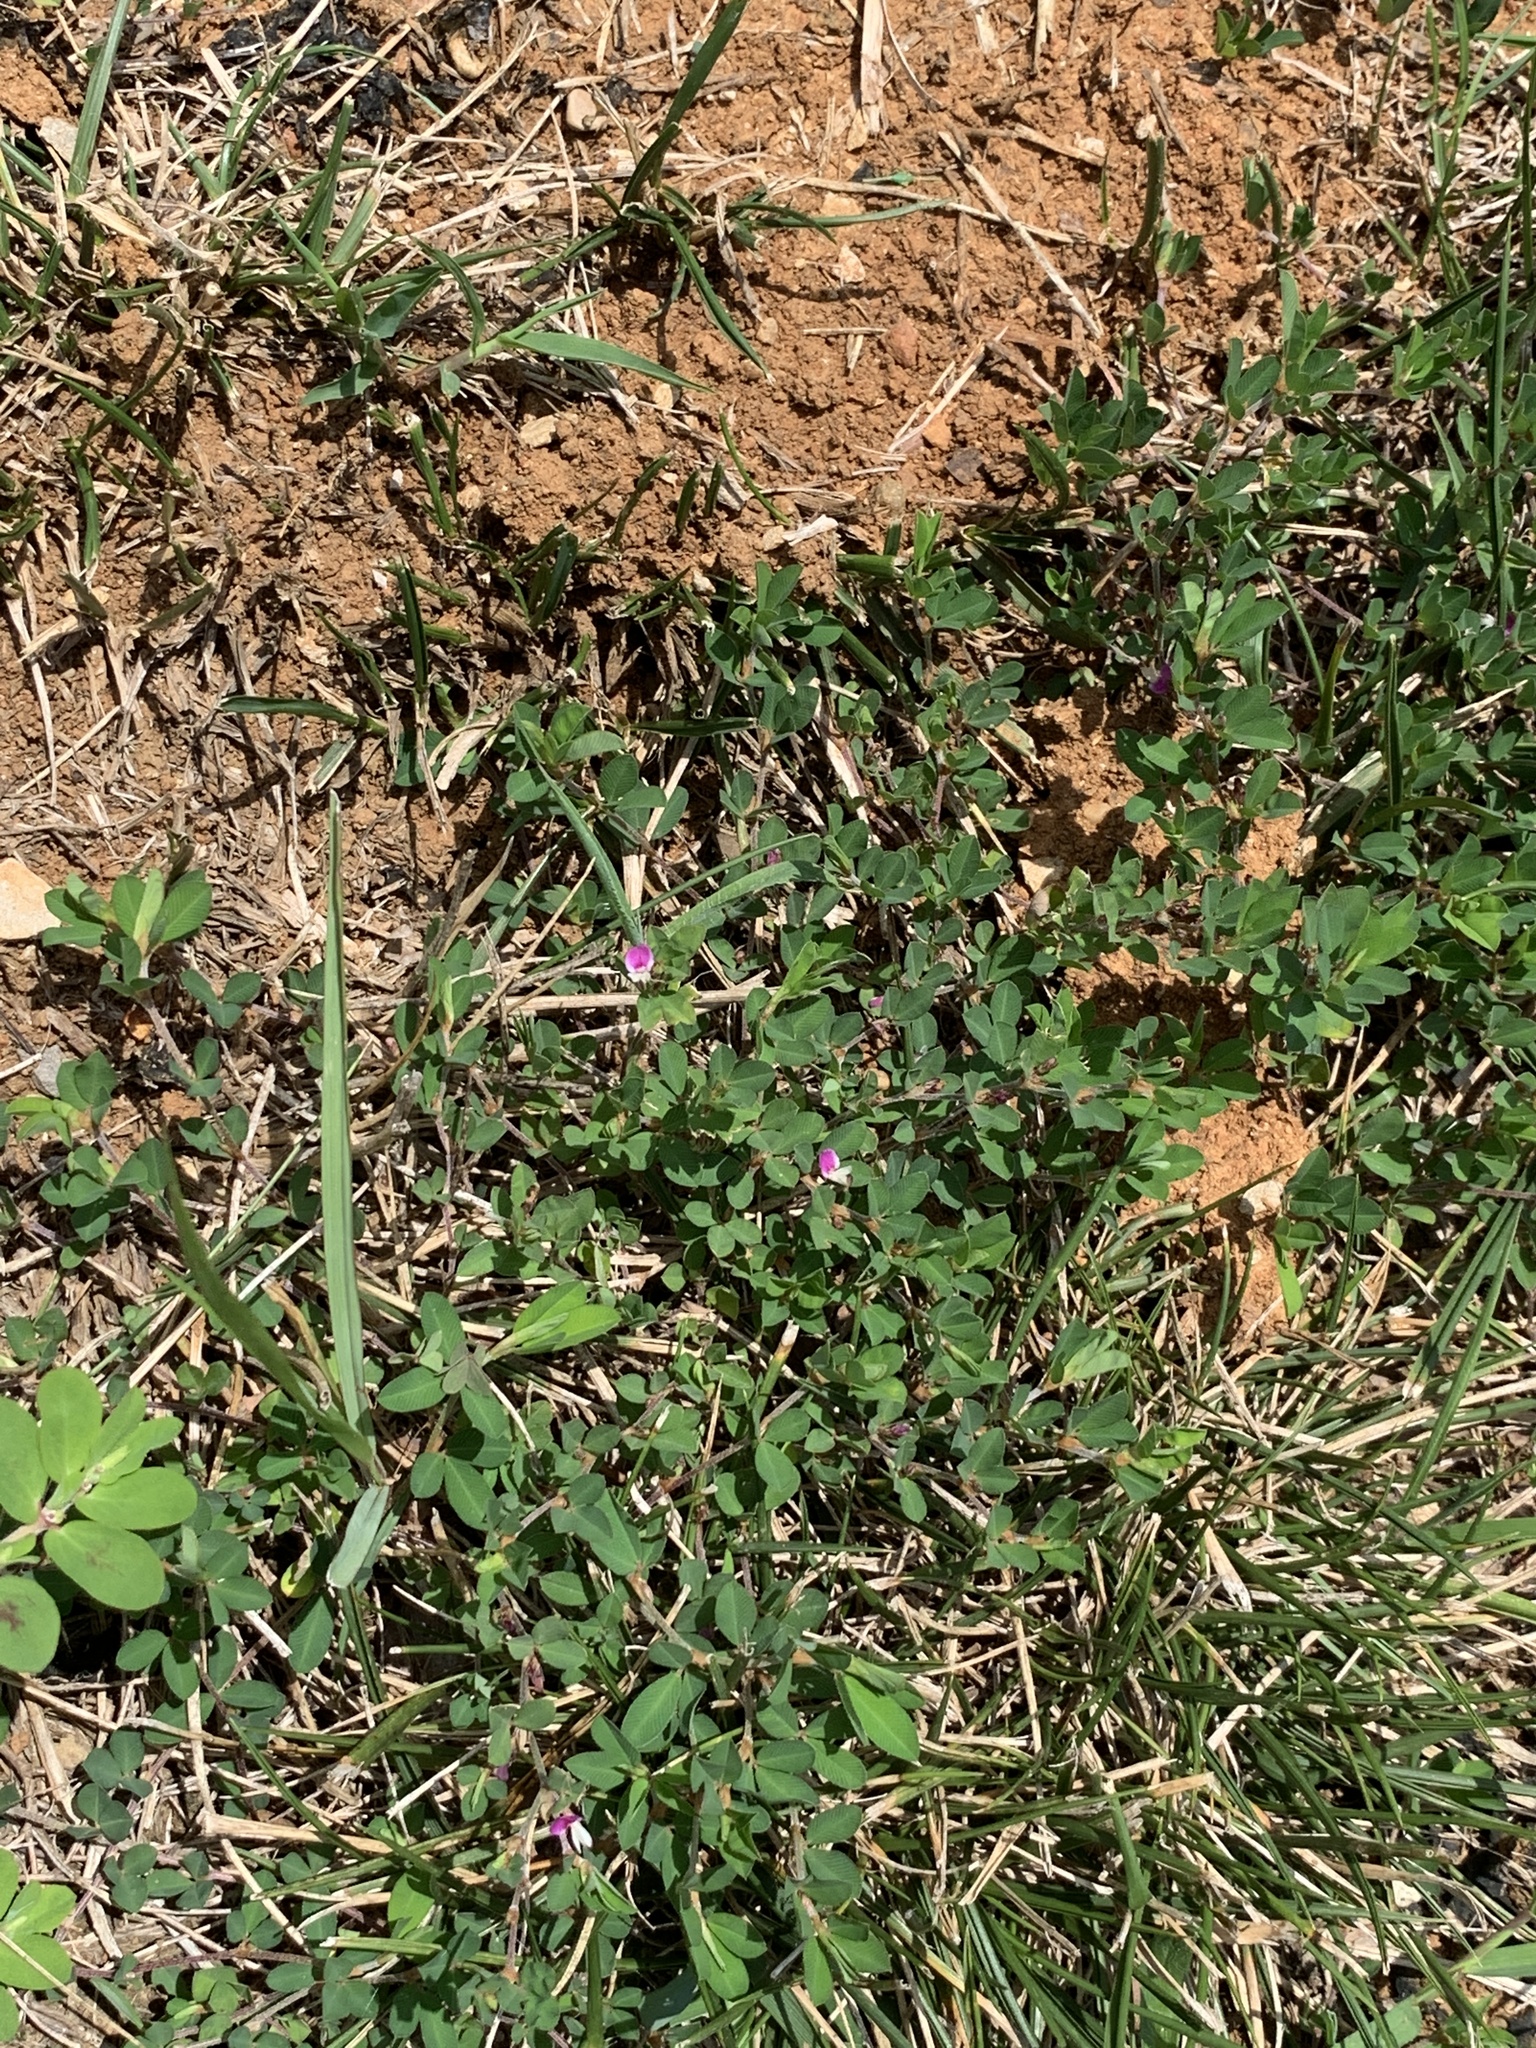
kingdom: Plantae
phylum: Tracheophyta
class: Magnoliopsida
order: Fabales
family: Fabaceae
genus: Kummerowia
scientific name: Kummerowia striata
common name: Japanese clover
